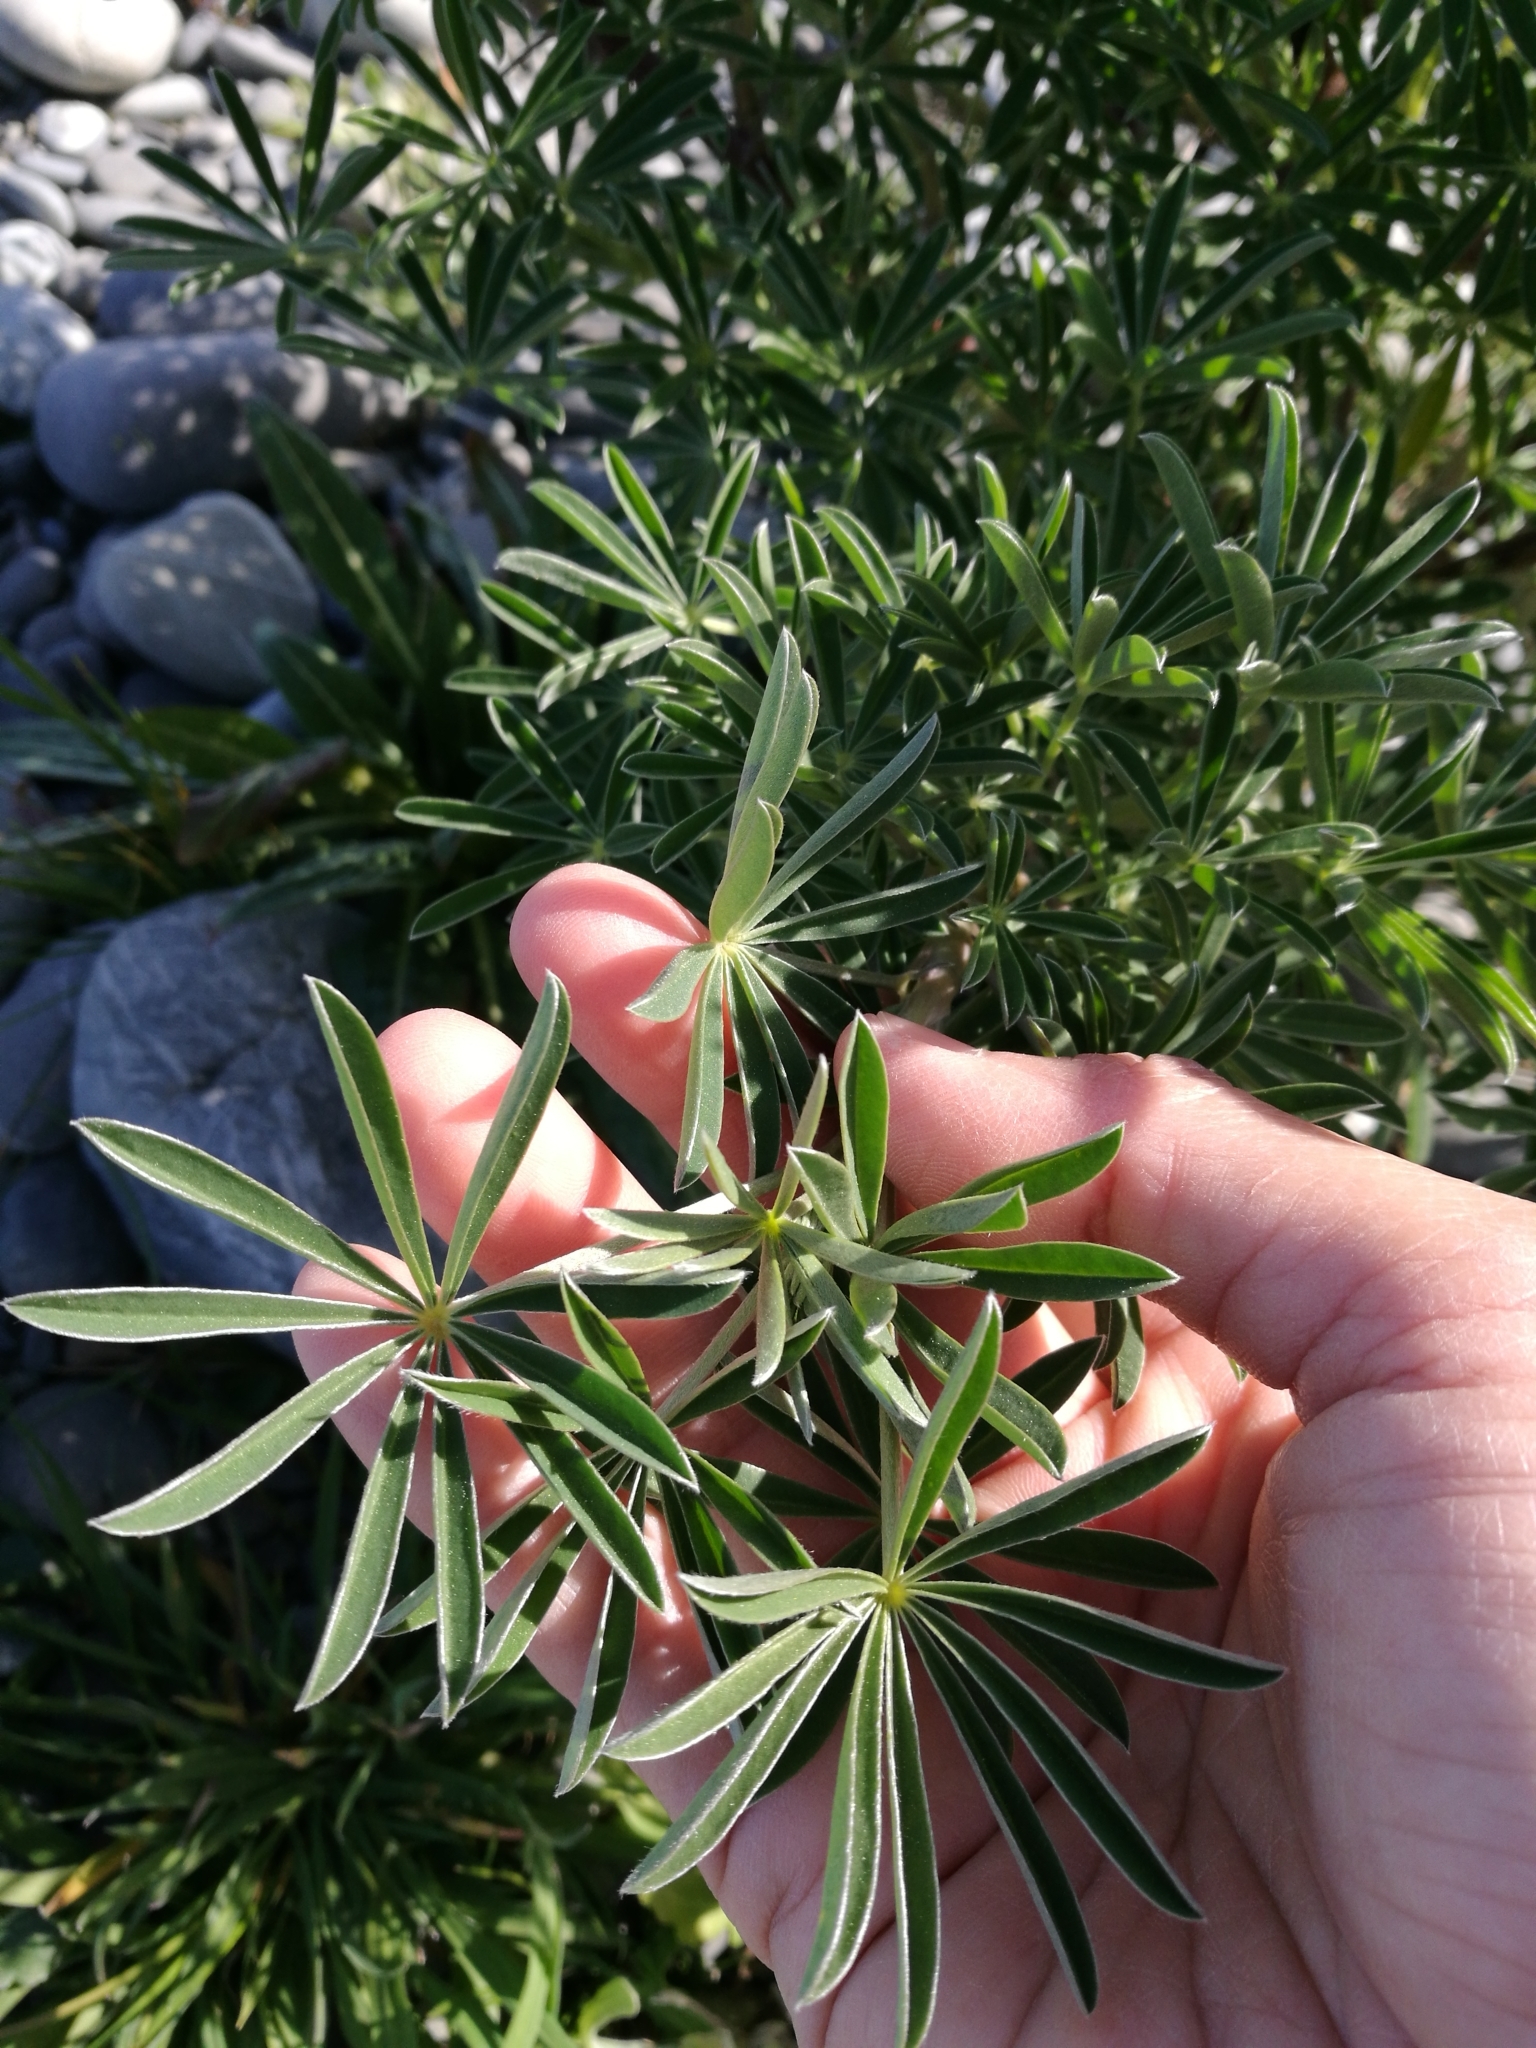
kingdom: Plantae
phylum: Tracheophyta
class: Magnoliopsida
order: Fabales
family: Fabaceae
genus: Lupinus
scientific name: Lupinus arboreus
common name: Yellow bush lupine
